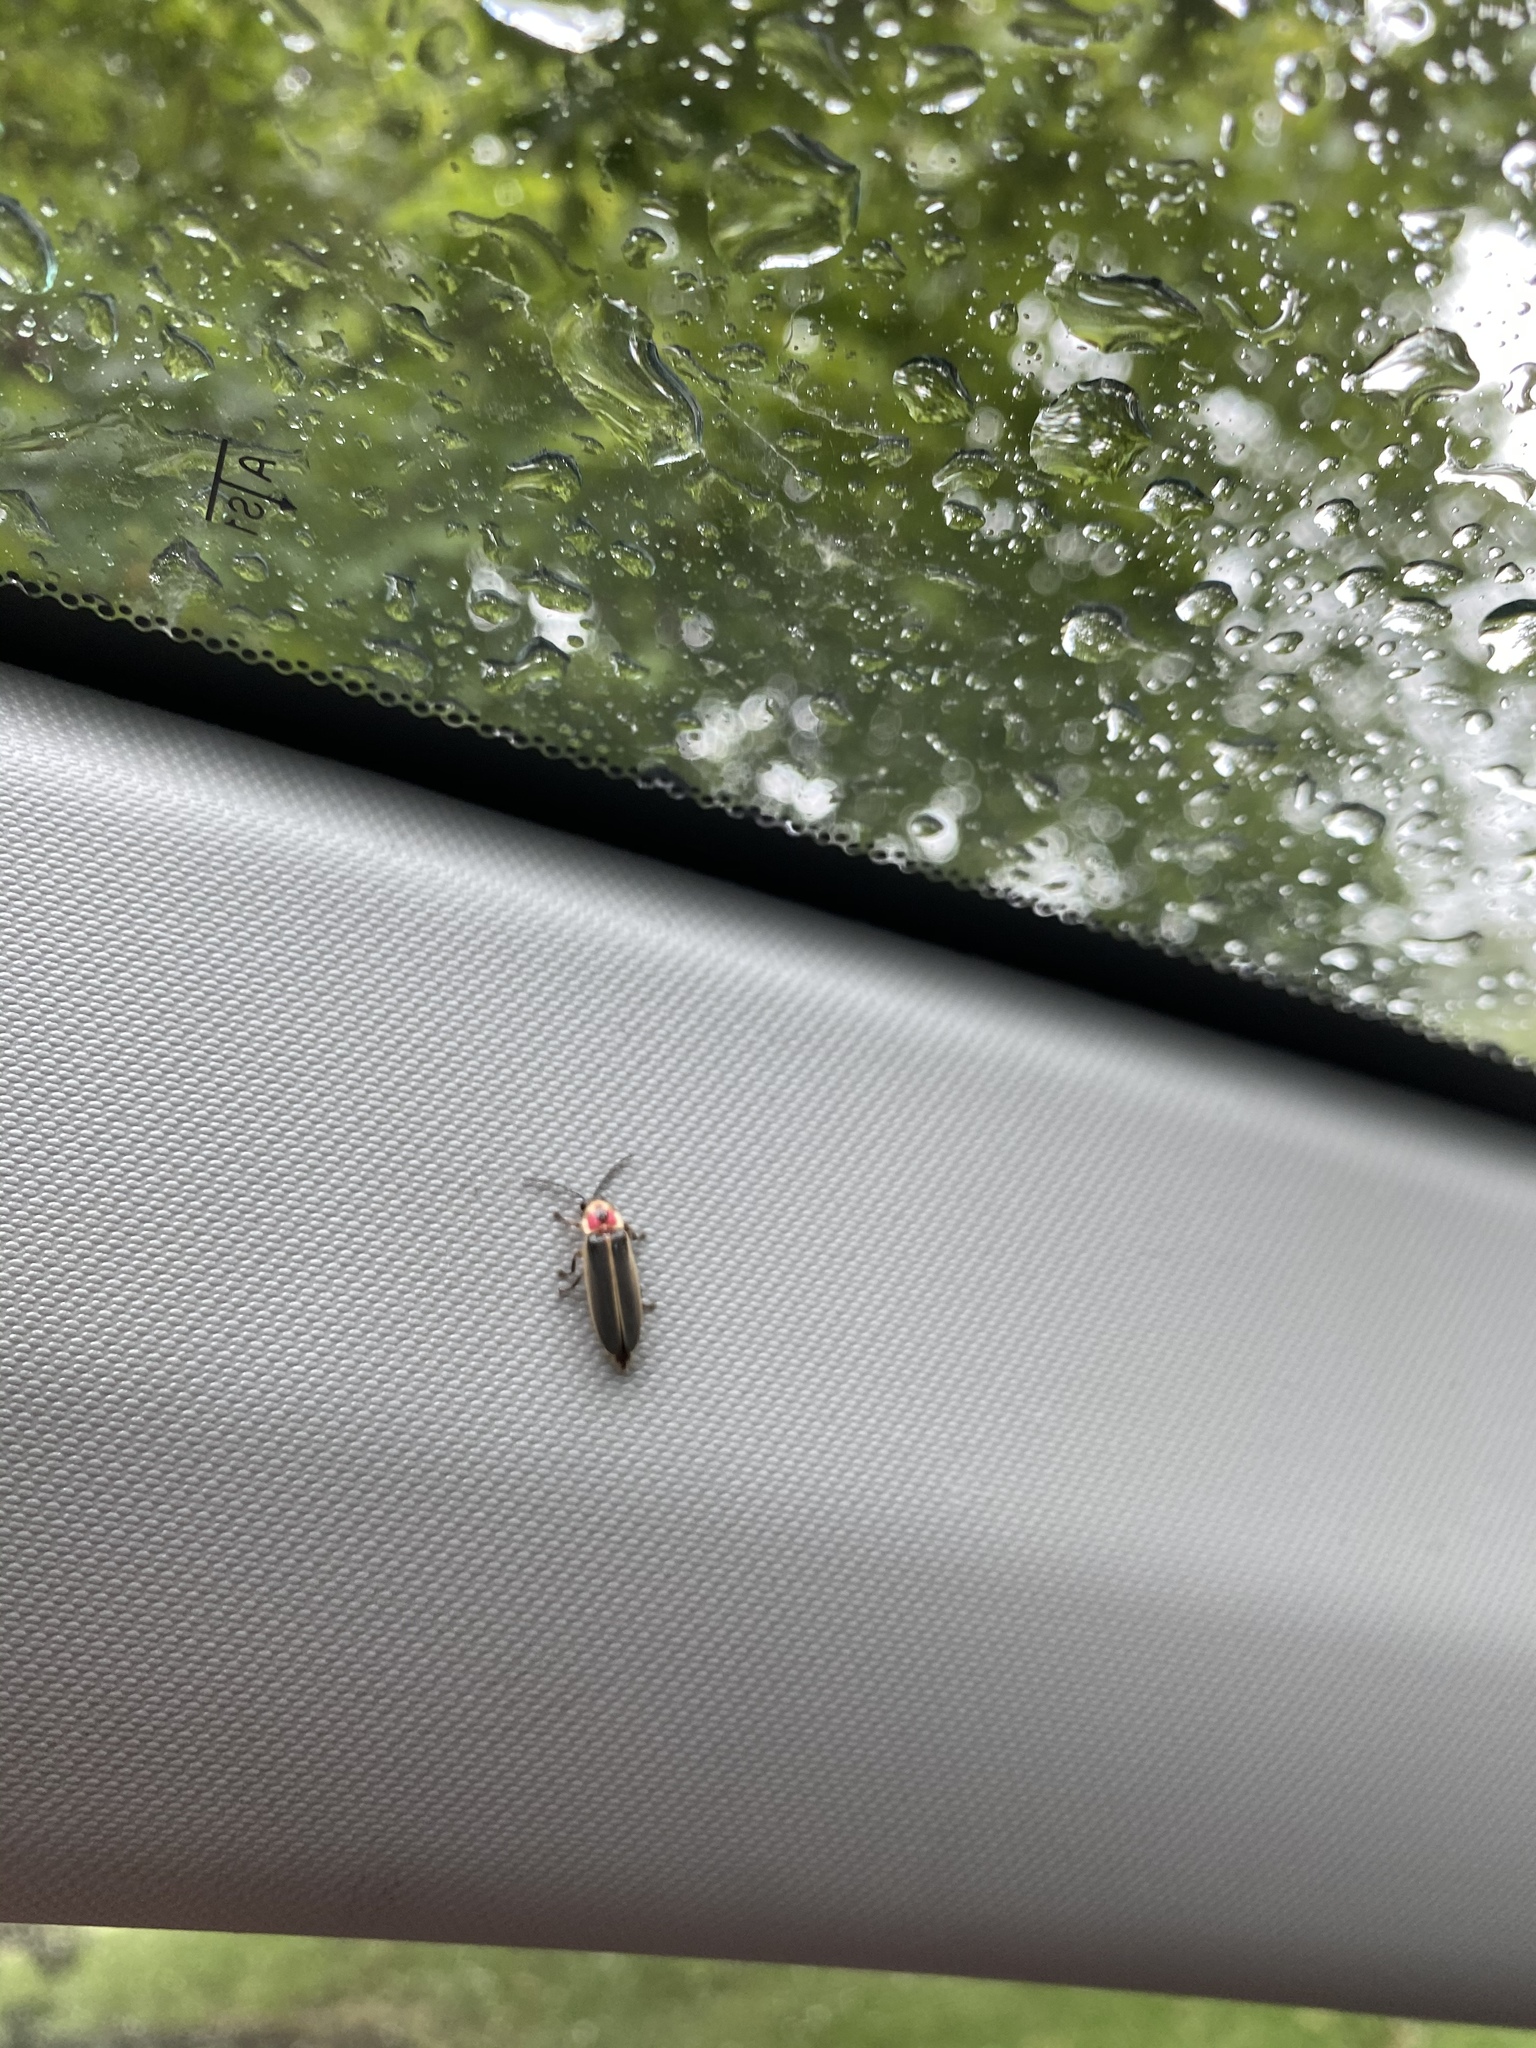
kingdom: Animalia
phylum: Arthropoda
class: Insecta
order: Coleoptera
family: Lampyridae
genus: Photinus
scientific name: Photinus pyralis
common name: Big dipper firefly
